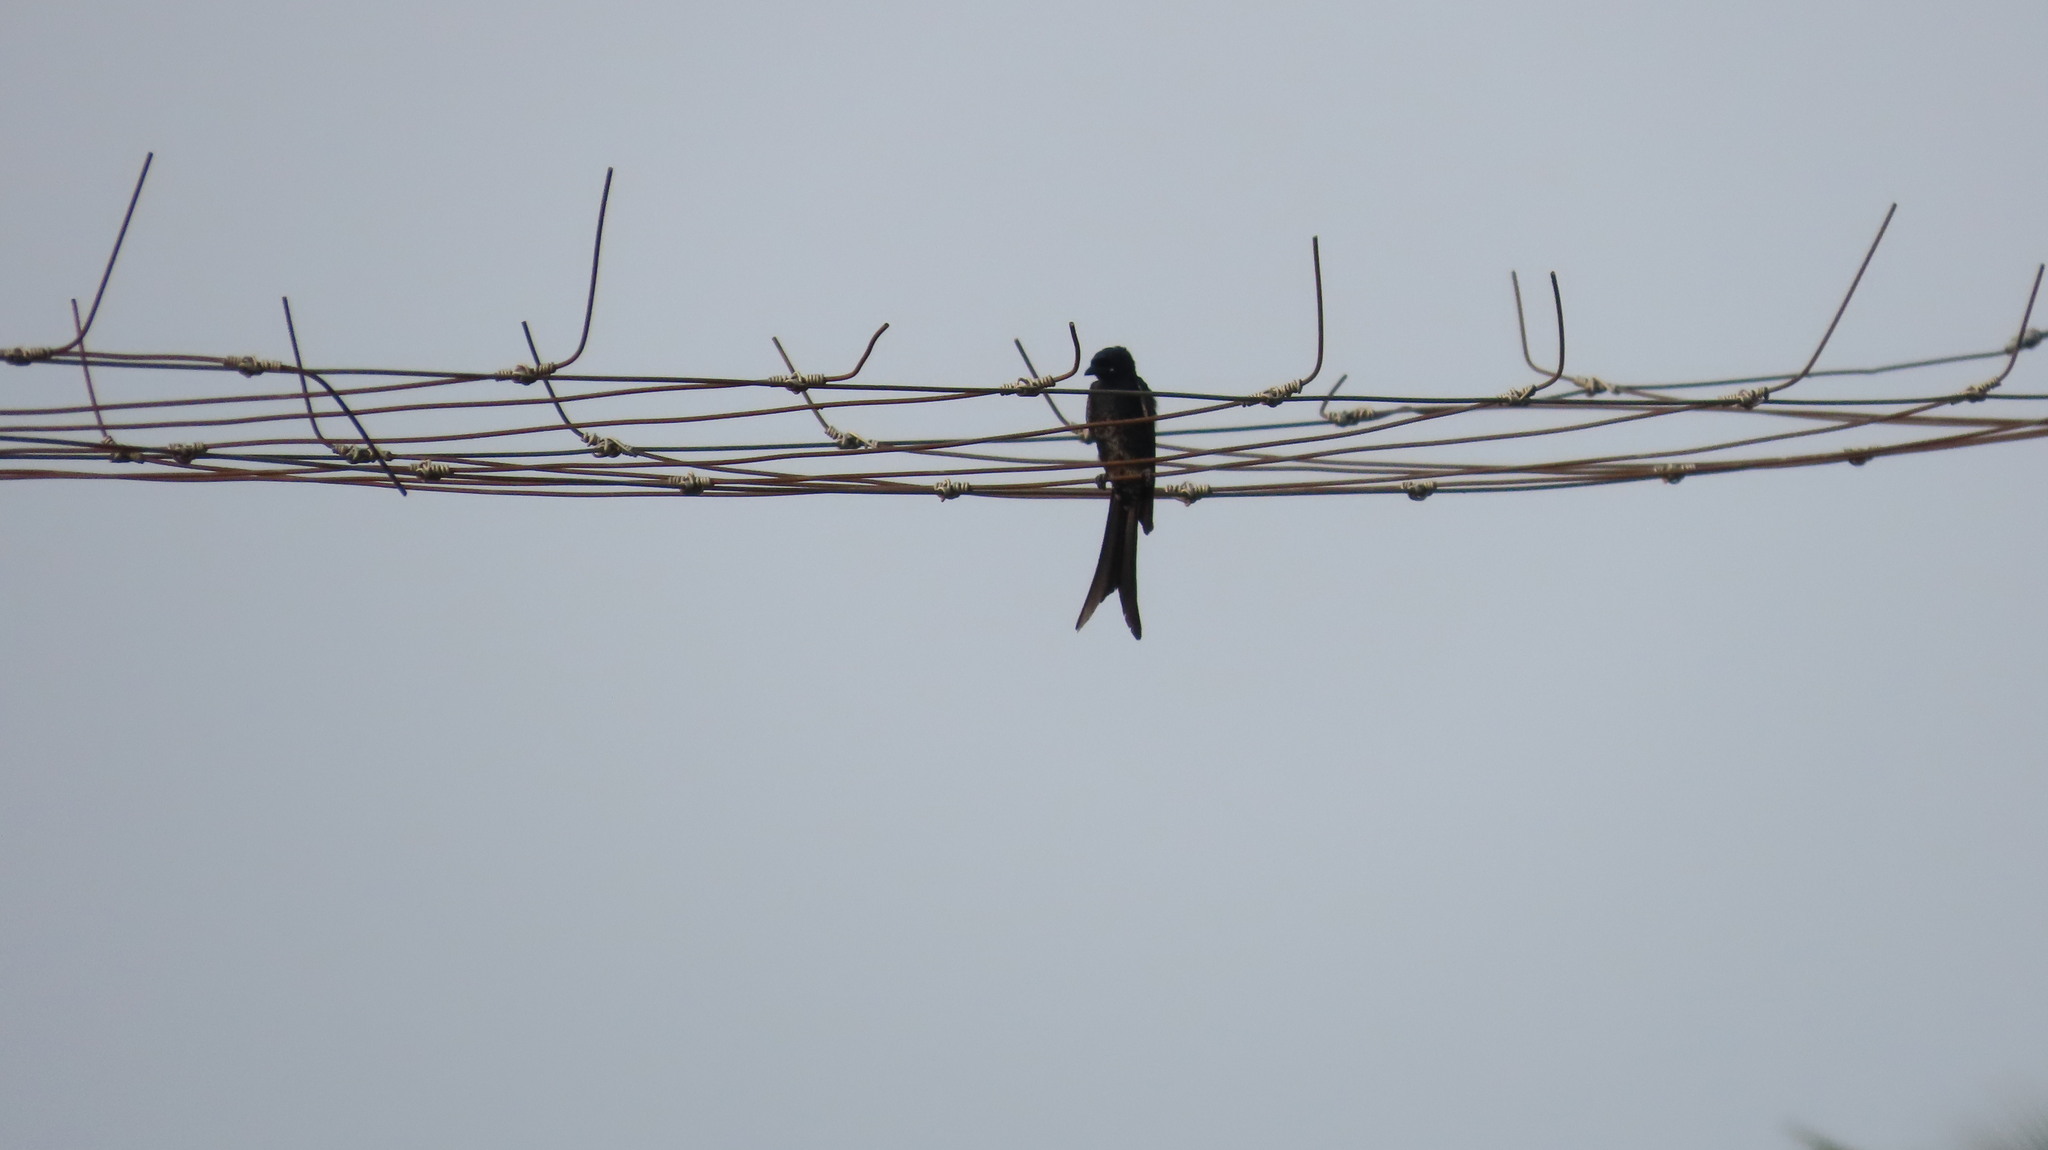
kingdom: Animalia
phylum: Chordata
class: Aves
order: Passeriformes
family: Dicruridae
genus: Dicrurus
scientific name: Dicrurus macrocercus
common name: Black drongo
